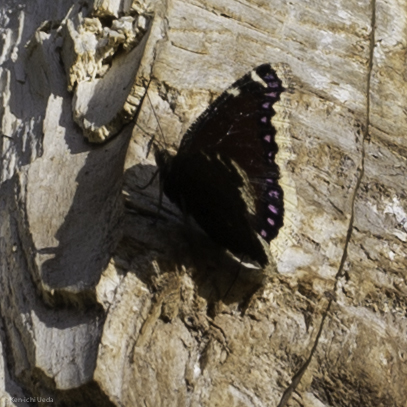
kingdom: Animalia
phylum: Arthropoda
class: Insecta
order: Lepidoptera
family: Nymphalidae
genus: Nymphalis
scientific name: Nymphalis antiopa
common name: Camberwell beauty
